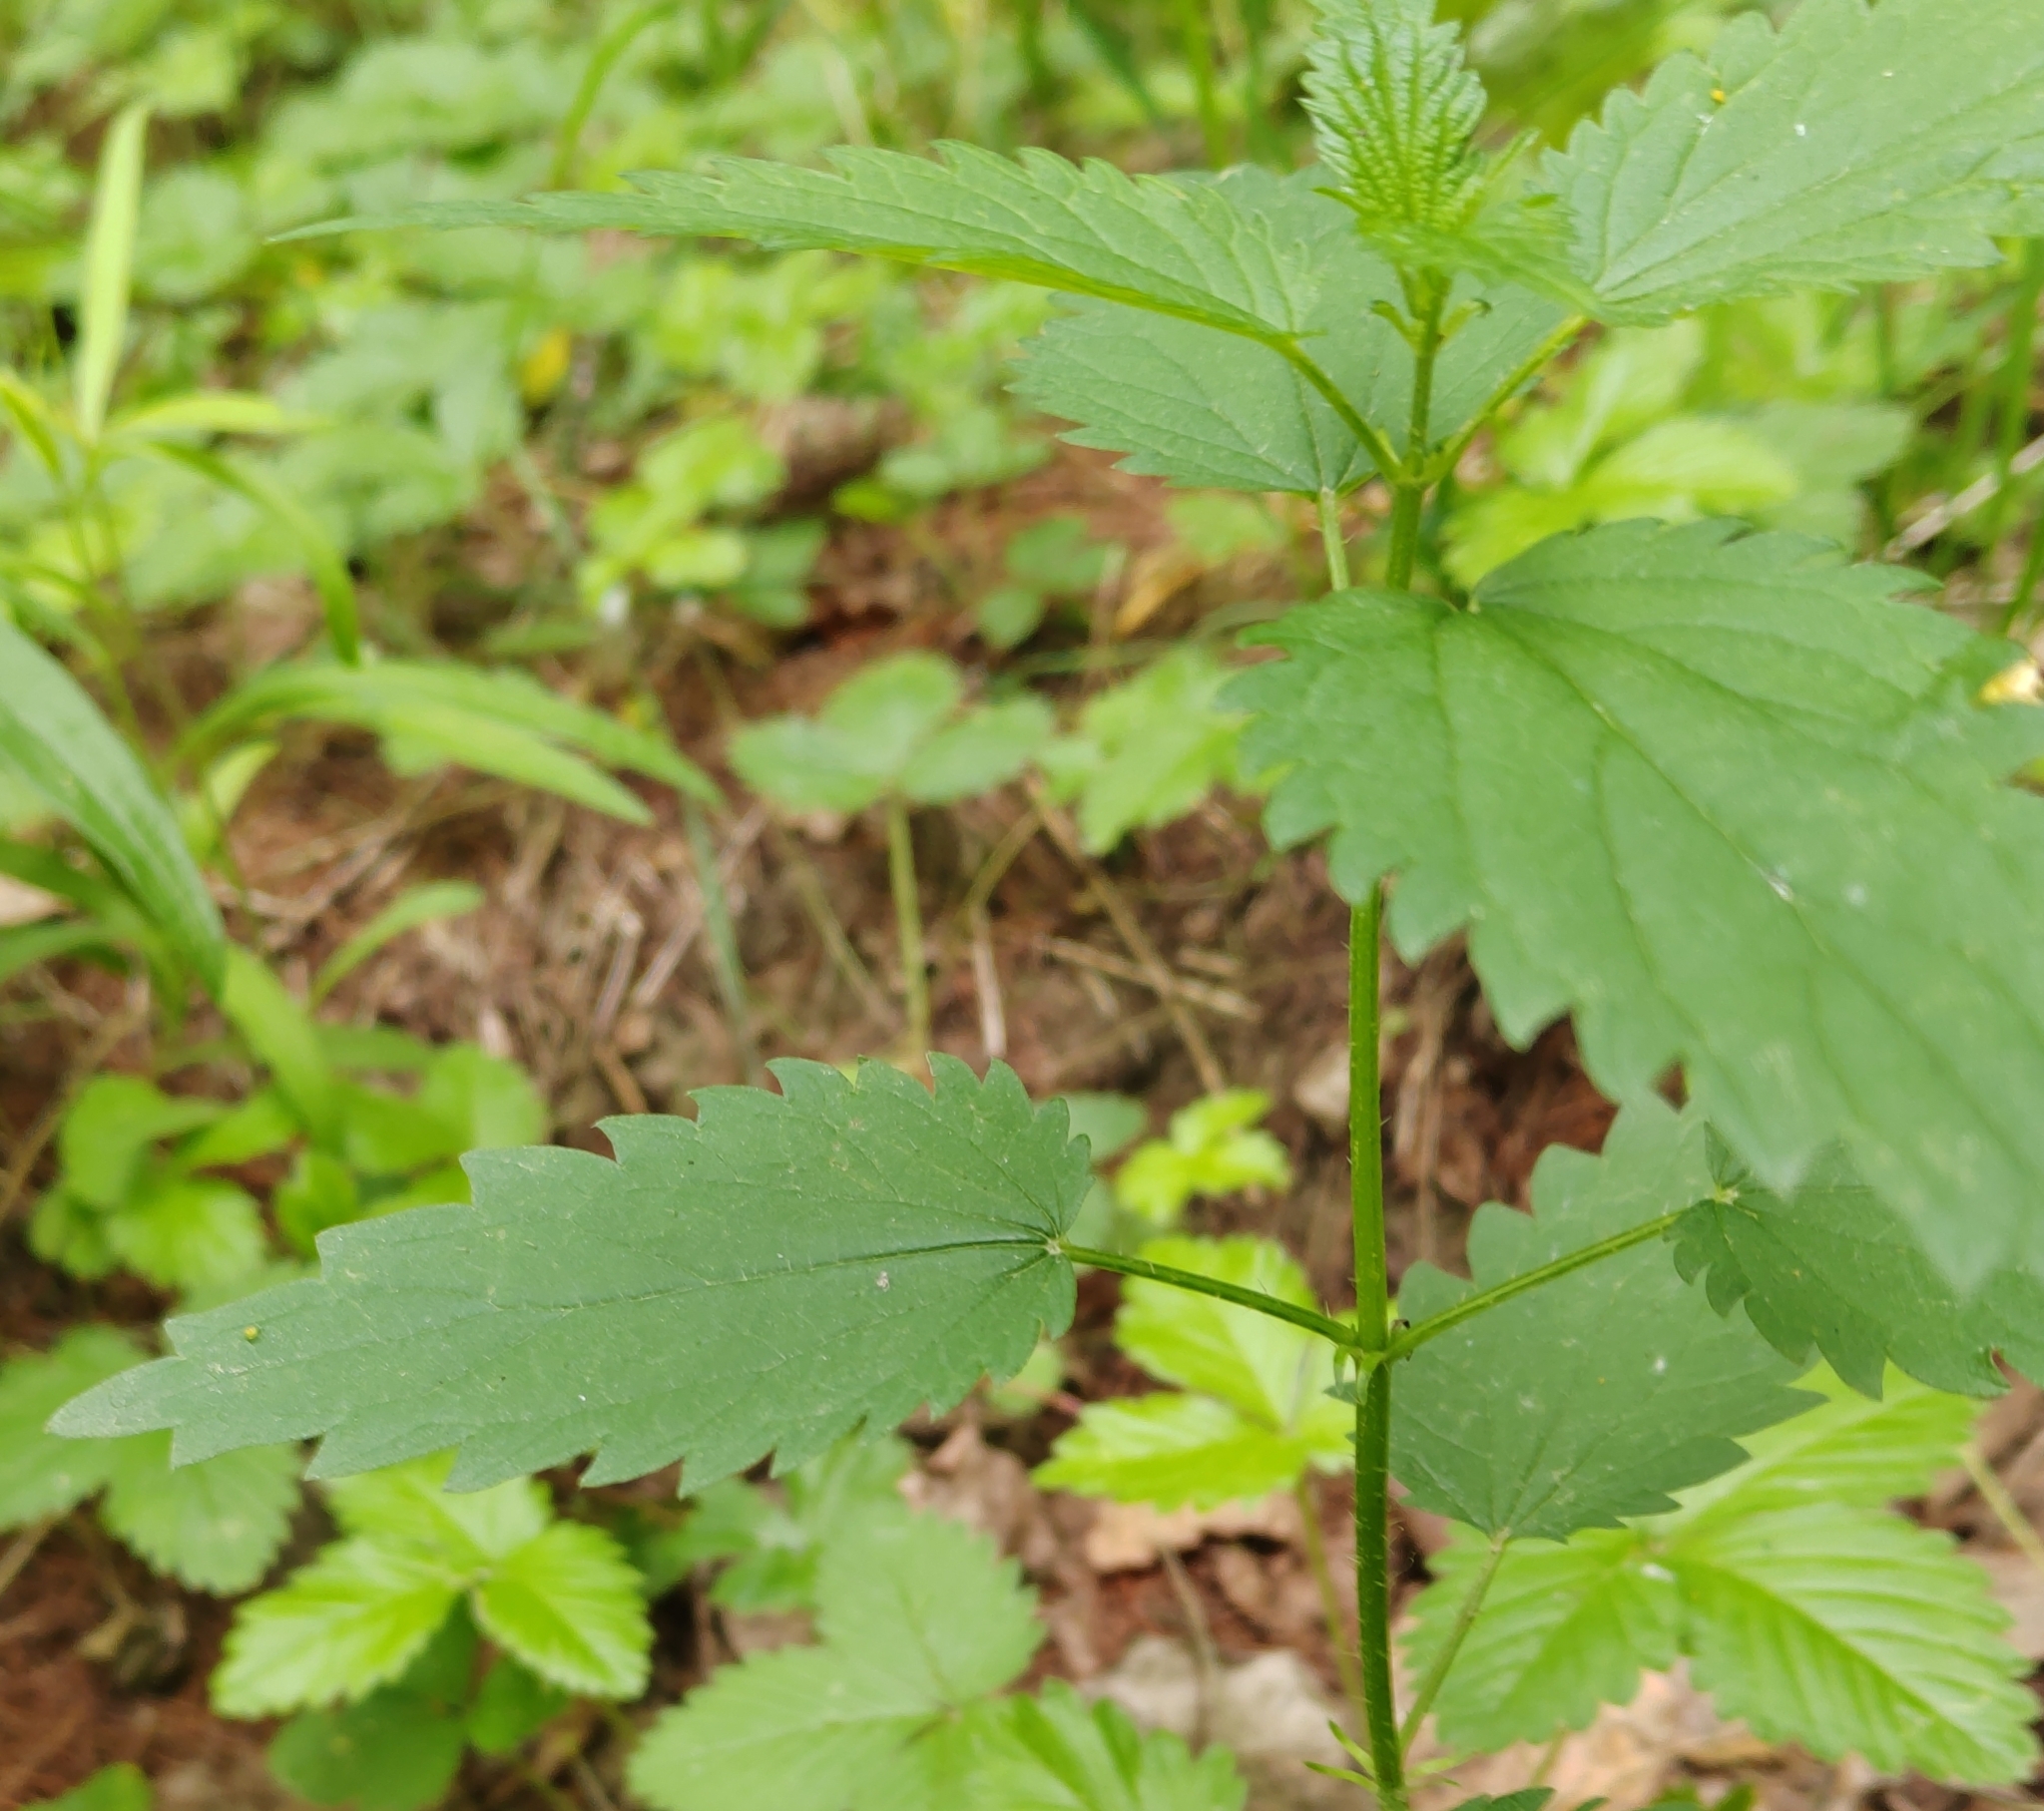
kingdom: Plantae
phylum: Tracheophyta
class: Magnoliopsida
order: Rosales
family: Urticaceae
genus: Urtica
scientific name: Urtica dioica
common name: Common nettle
